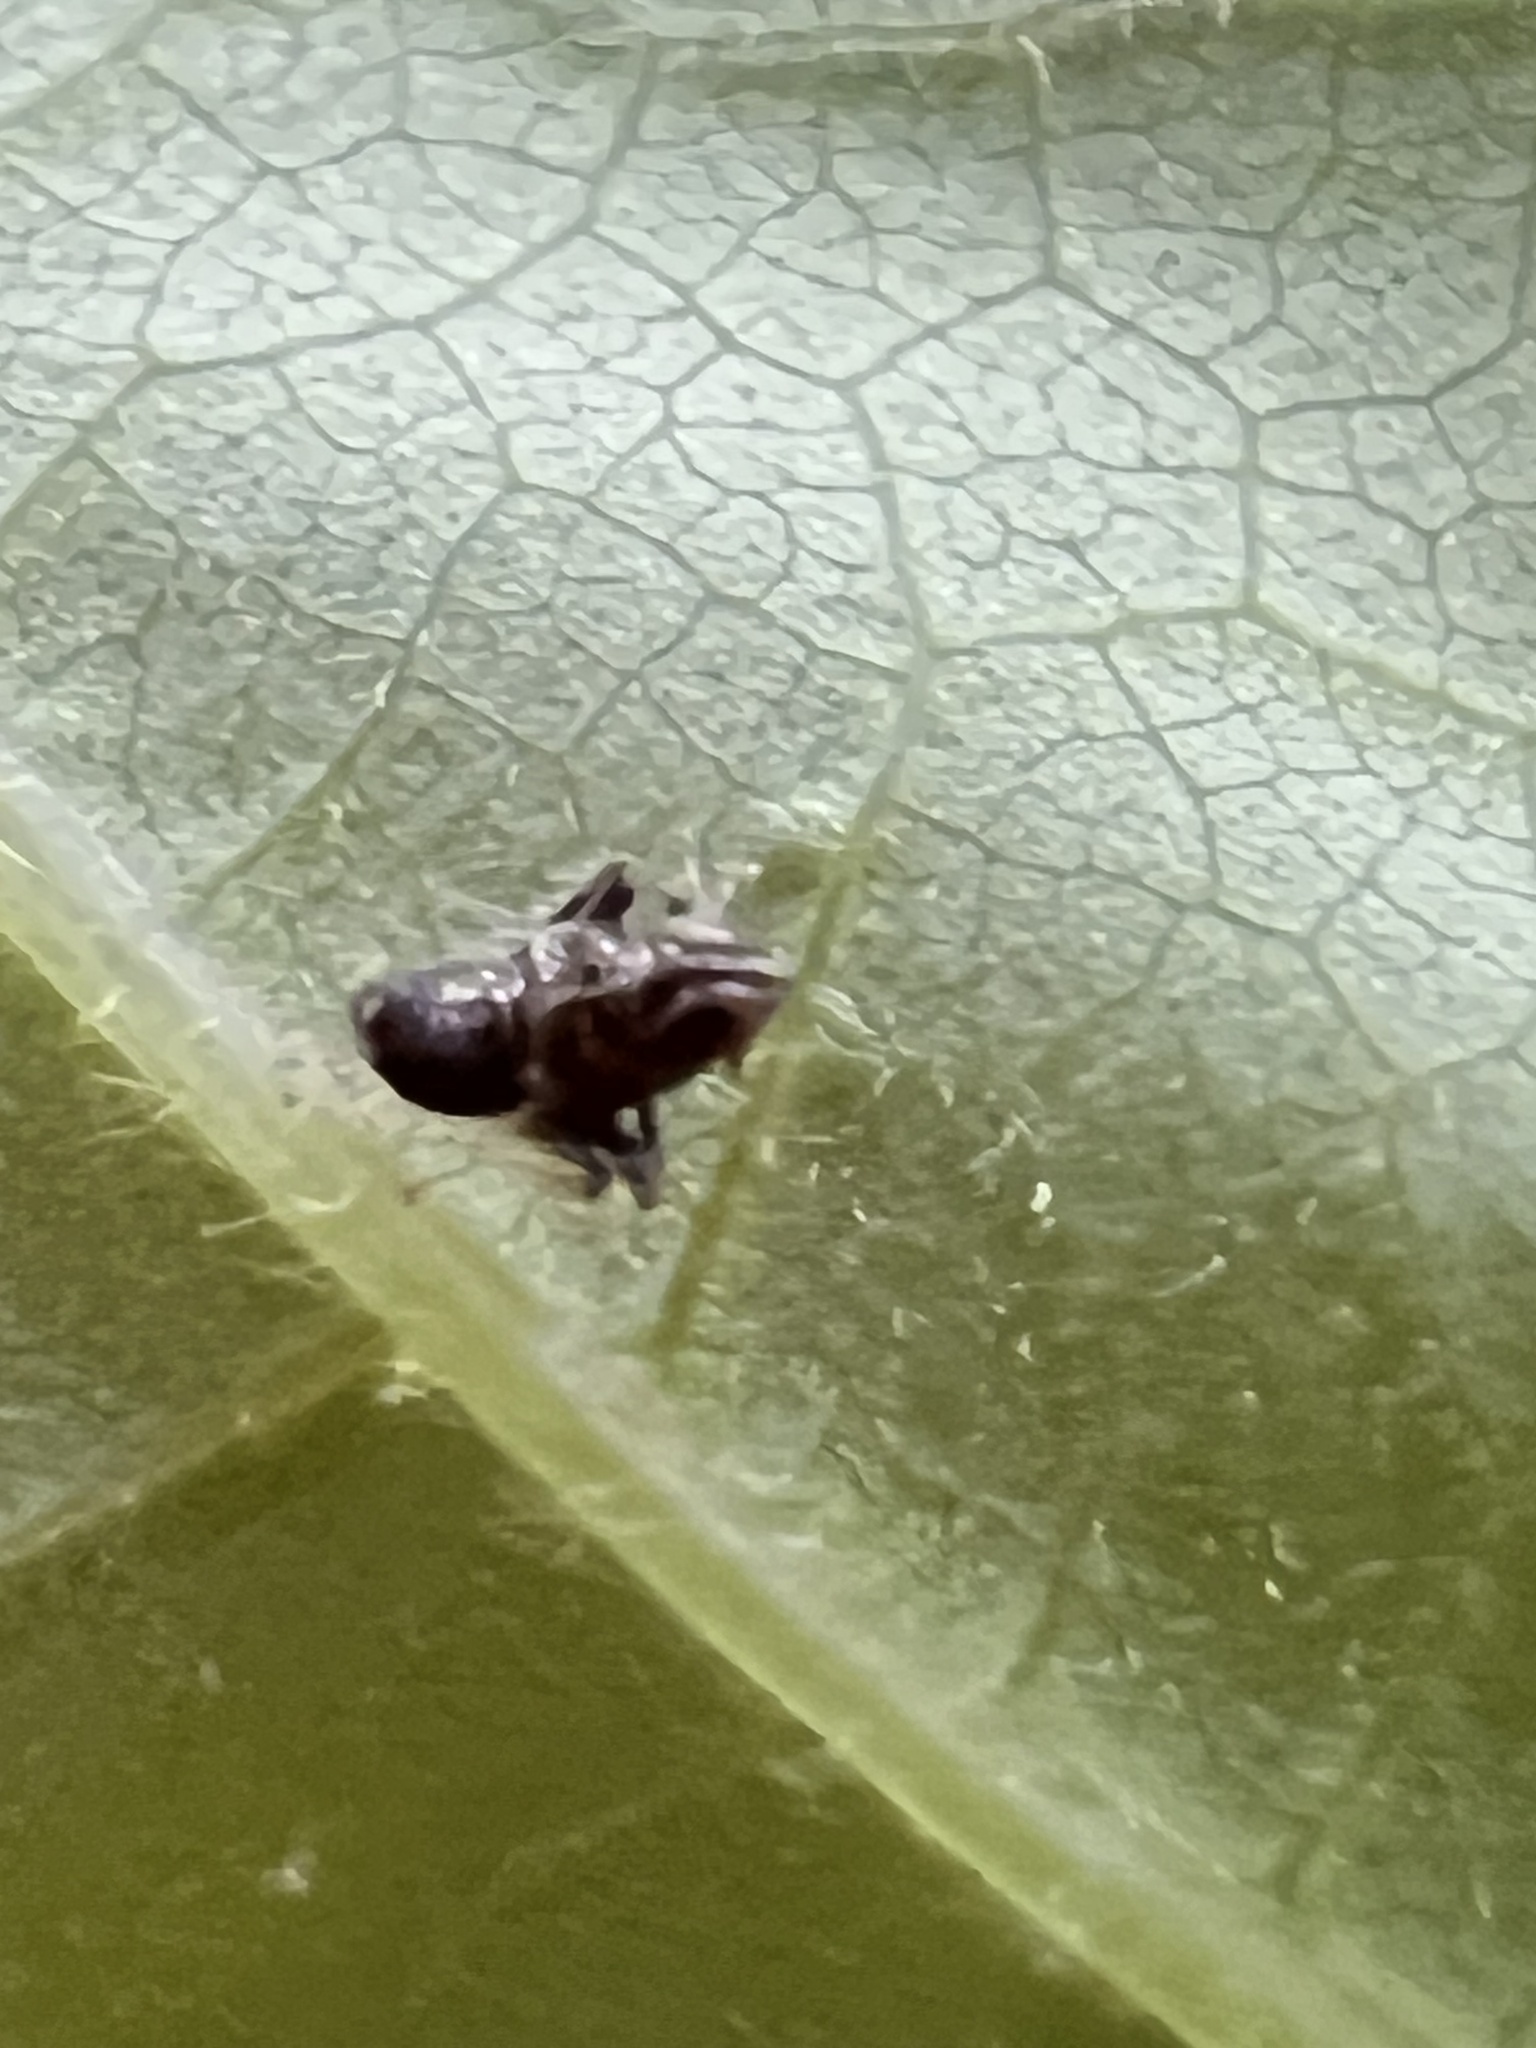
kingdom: Animalia
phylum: Arthropoda
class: Insecta
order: Hemiptera
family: Cicadellidae
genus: Jikradia
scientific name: Jikradia olitoria
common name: Coppery leafhopper
